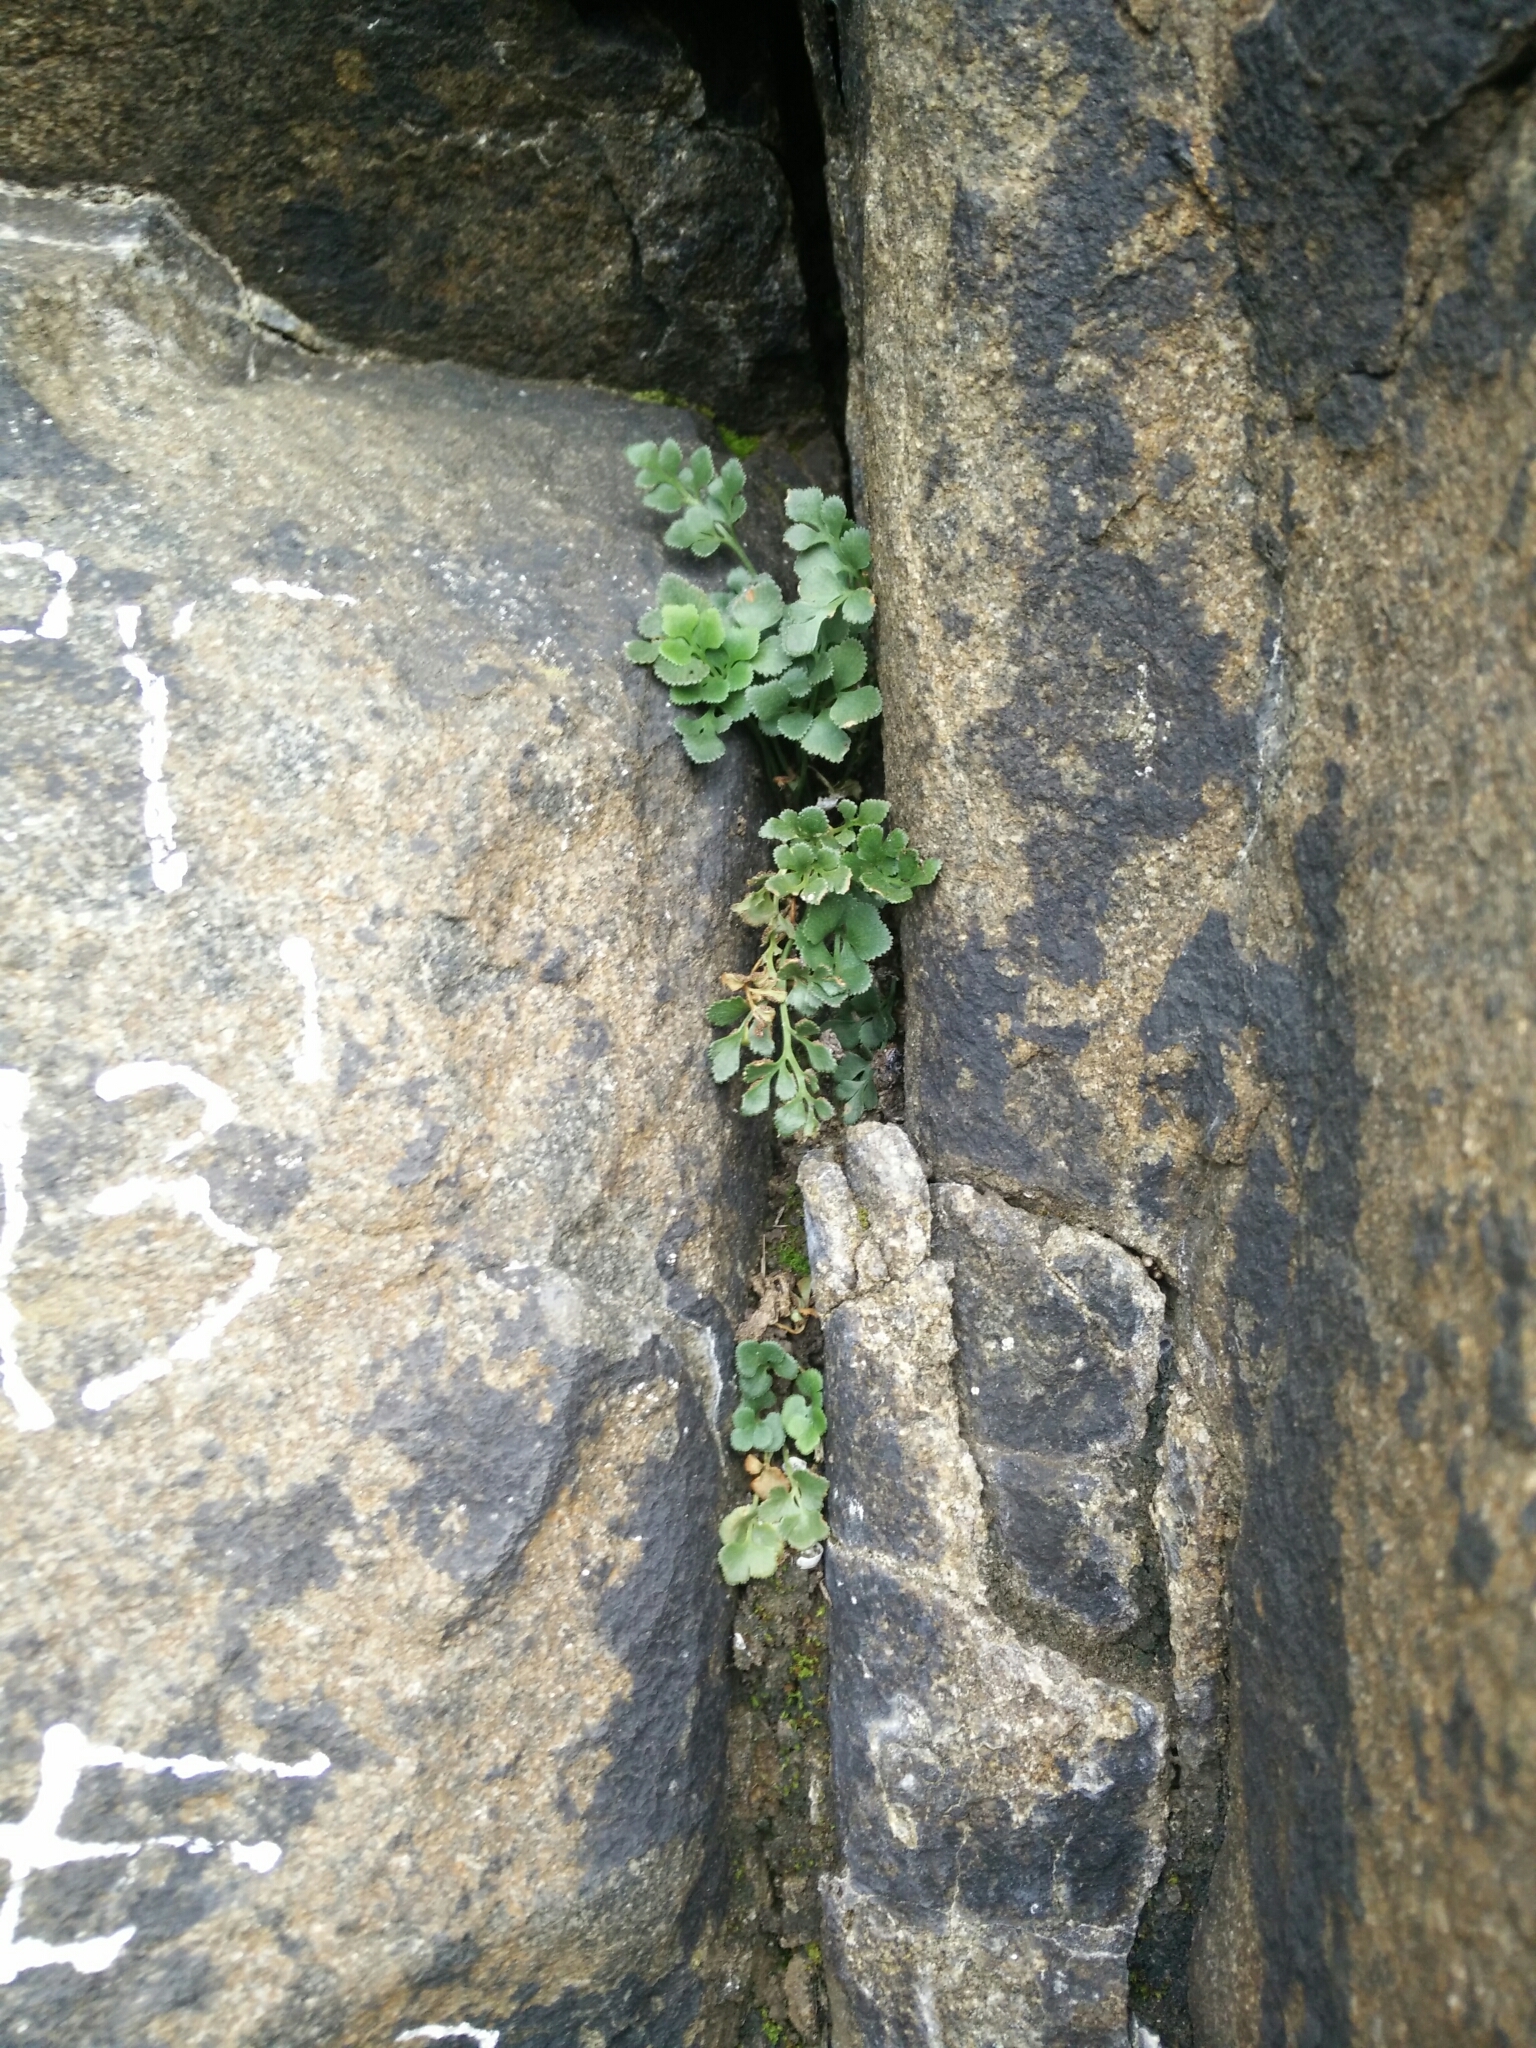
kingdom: Plantae
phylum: Tracheophyta
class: Polypodiopsida
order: Polypodiales
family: Aspleniaceae
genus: Asplenium
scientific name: Asplenium ruta-muraria
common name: Wall-rue
